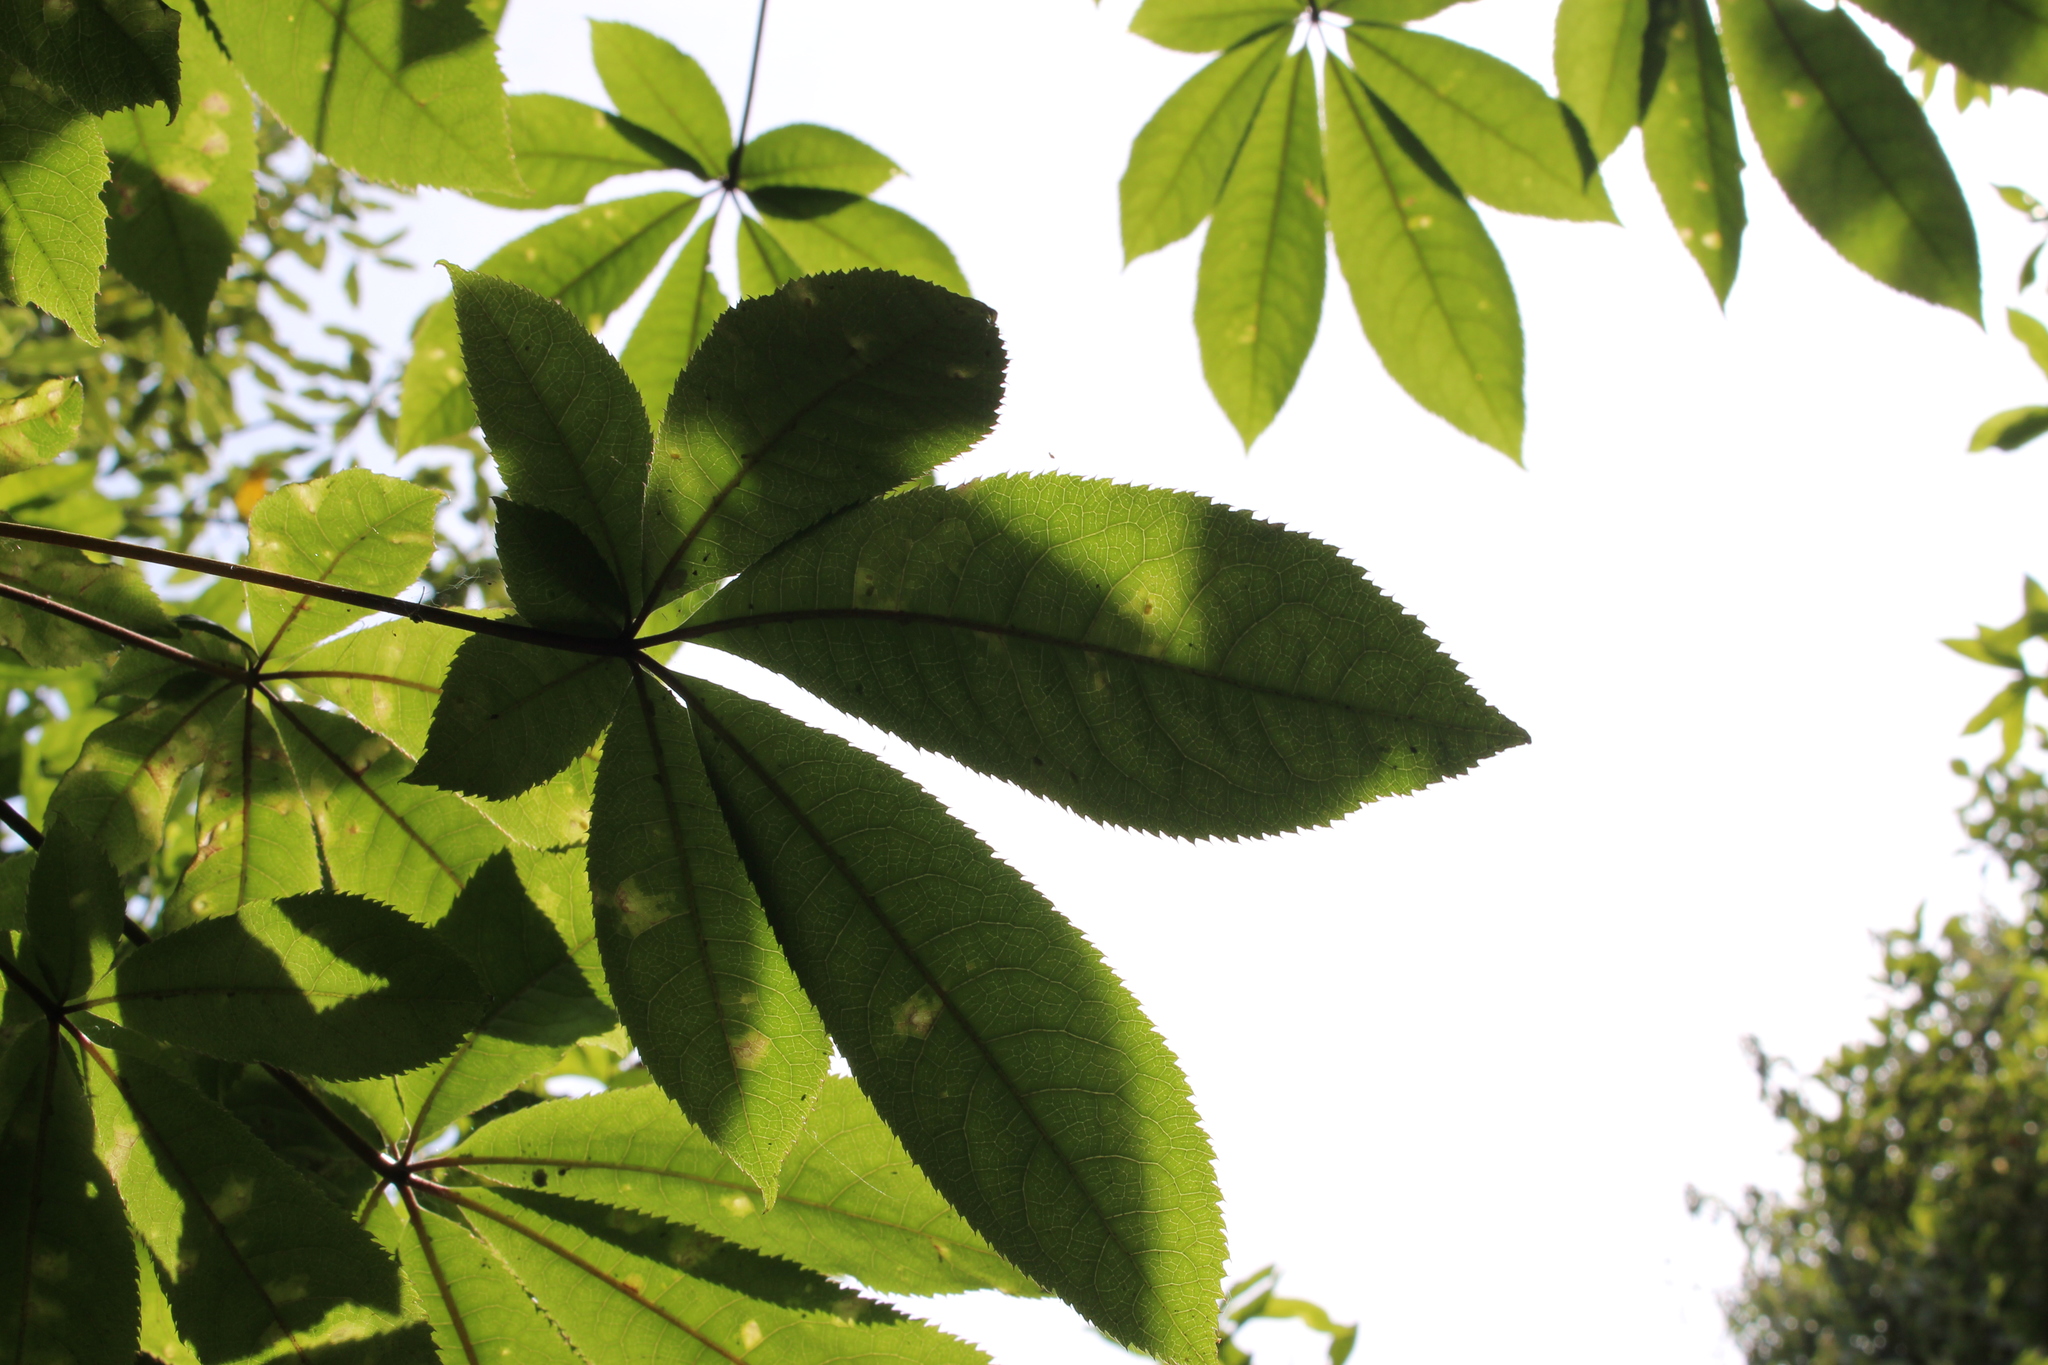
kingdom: Plantae
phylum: Tracheophyta
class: Magnoliopsida
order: Apiales
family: Araliaceae
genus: Schefflera
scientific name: Schefflera digitata
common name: Pate
